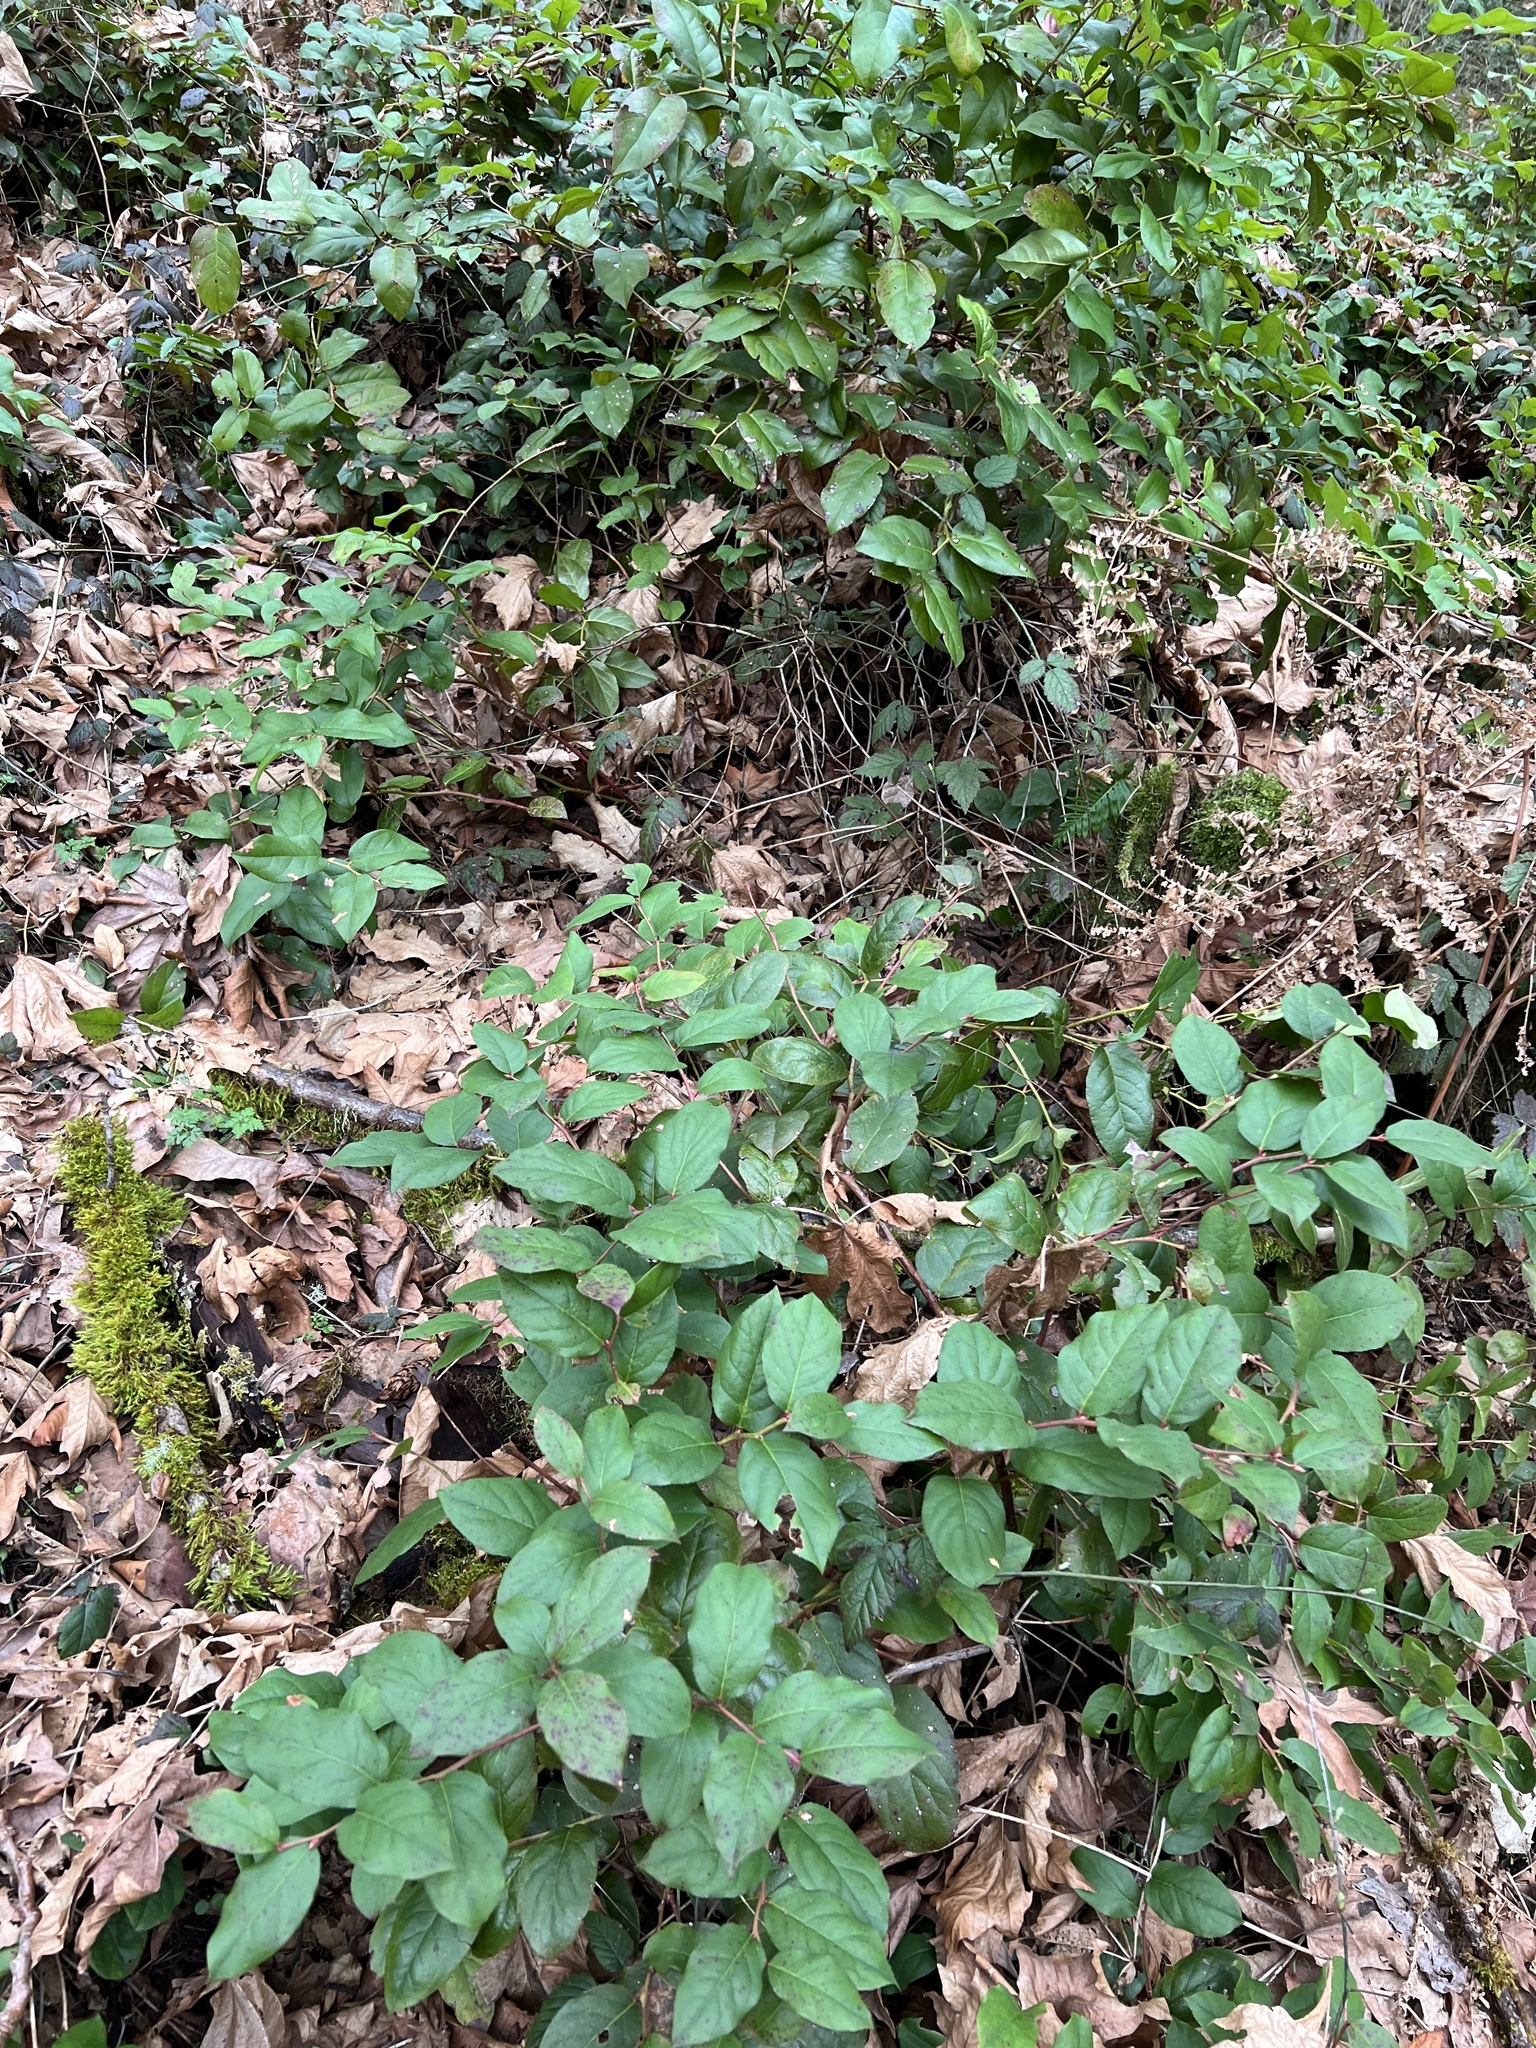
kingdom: Plantae
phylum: Tracheophyta
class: Magnoliopsida
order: Ericales
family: Ericaceae
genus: Gaultheria
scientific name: Gaultheria shallon
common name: Shallon
